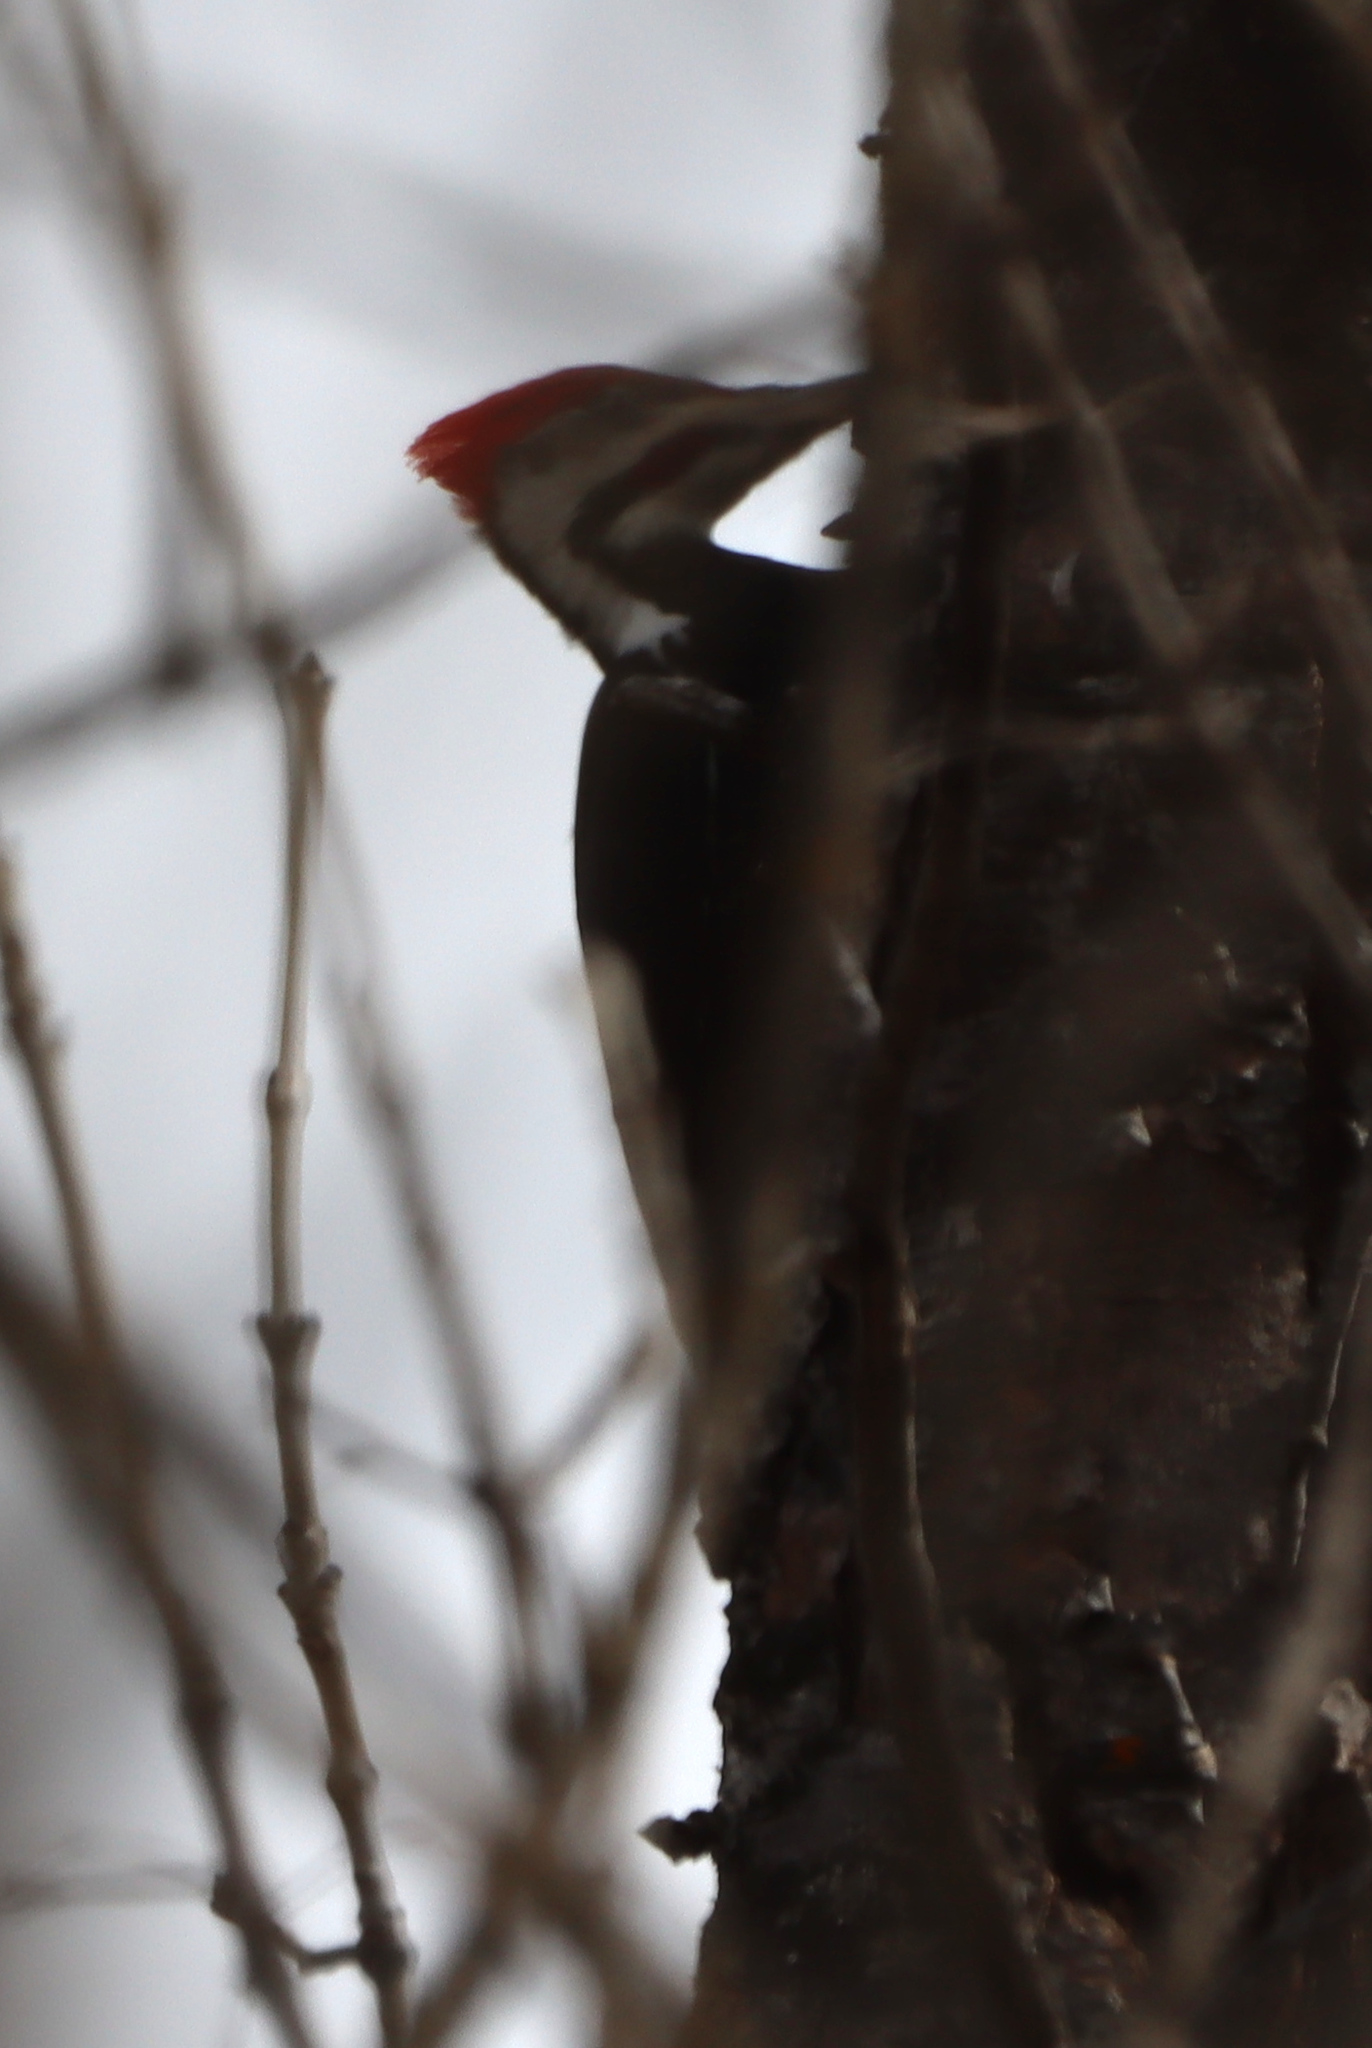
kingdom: Animalia
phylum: Chordata
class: Aves
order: Piciformes
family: Picidae
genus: Dryocopus
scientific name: Dryocopus pileatus
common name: Pileated woodpecker
